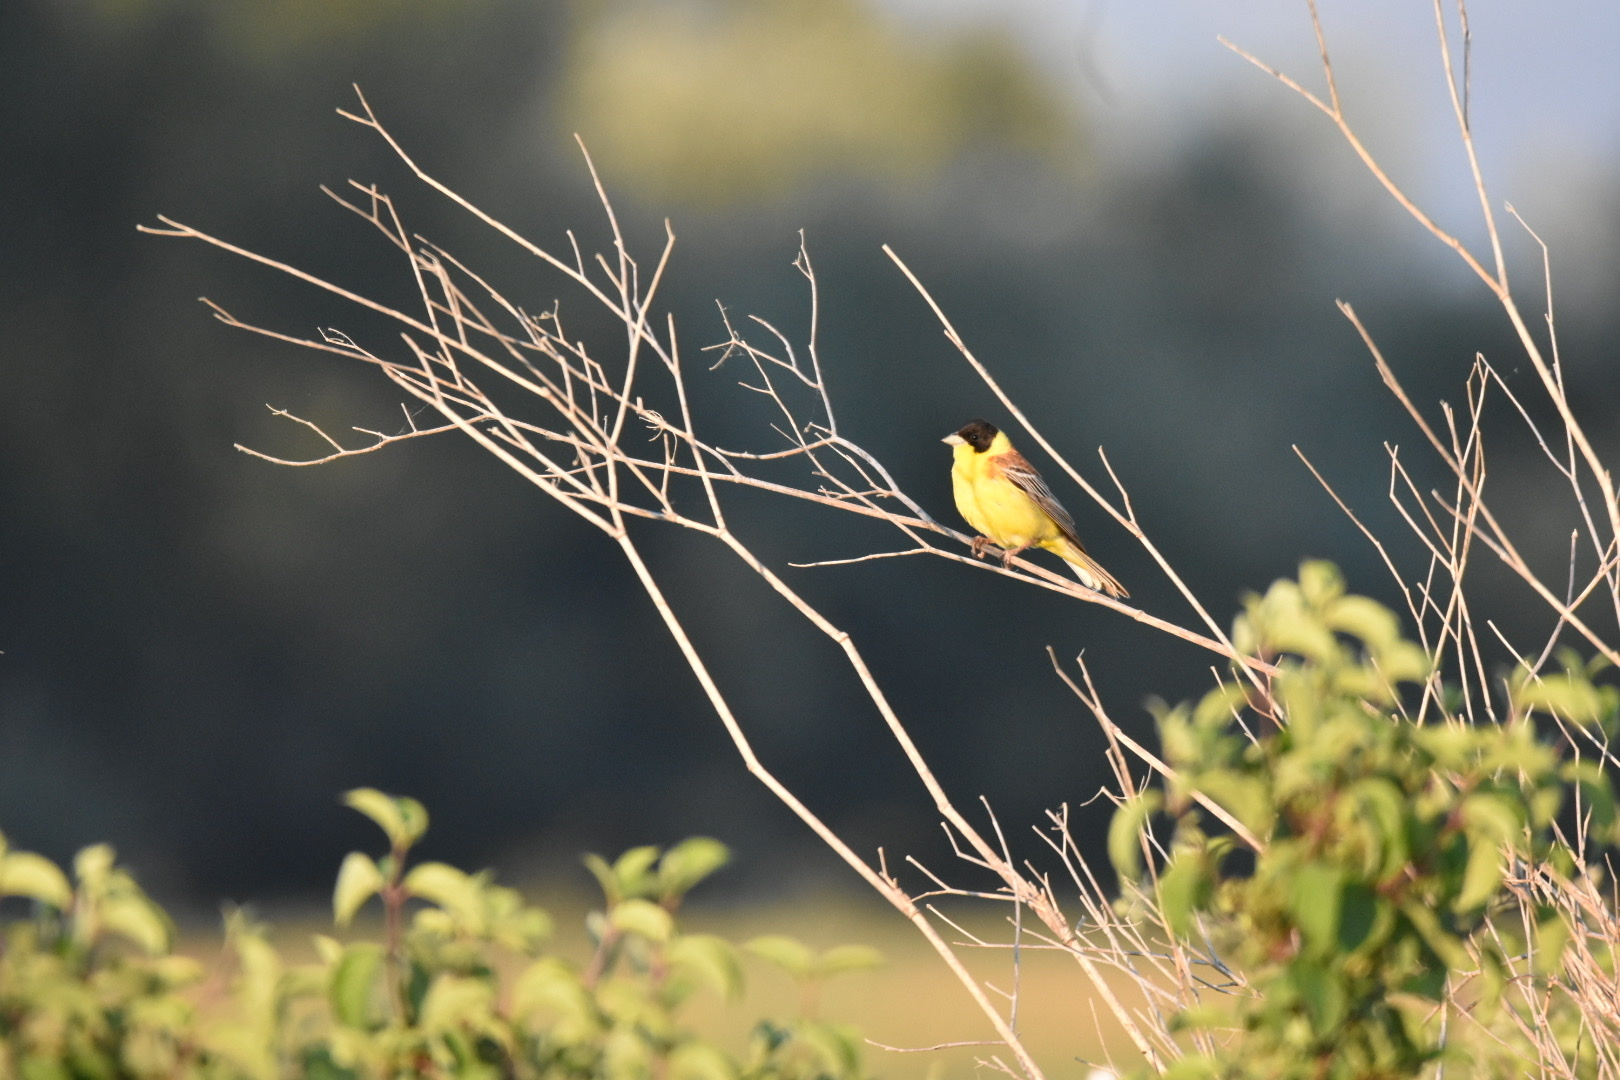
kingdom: Animalia
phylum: Chordata
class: Aves
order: Passeriformes
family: Emberizidae
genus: Emberiza
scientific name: Emberiza melanocephala
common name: Black-headed bunting
